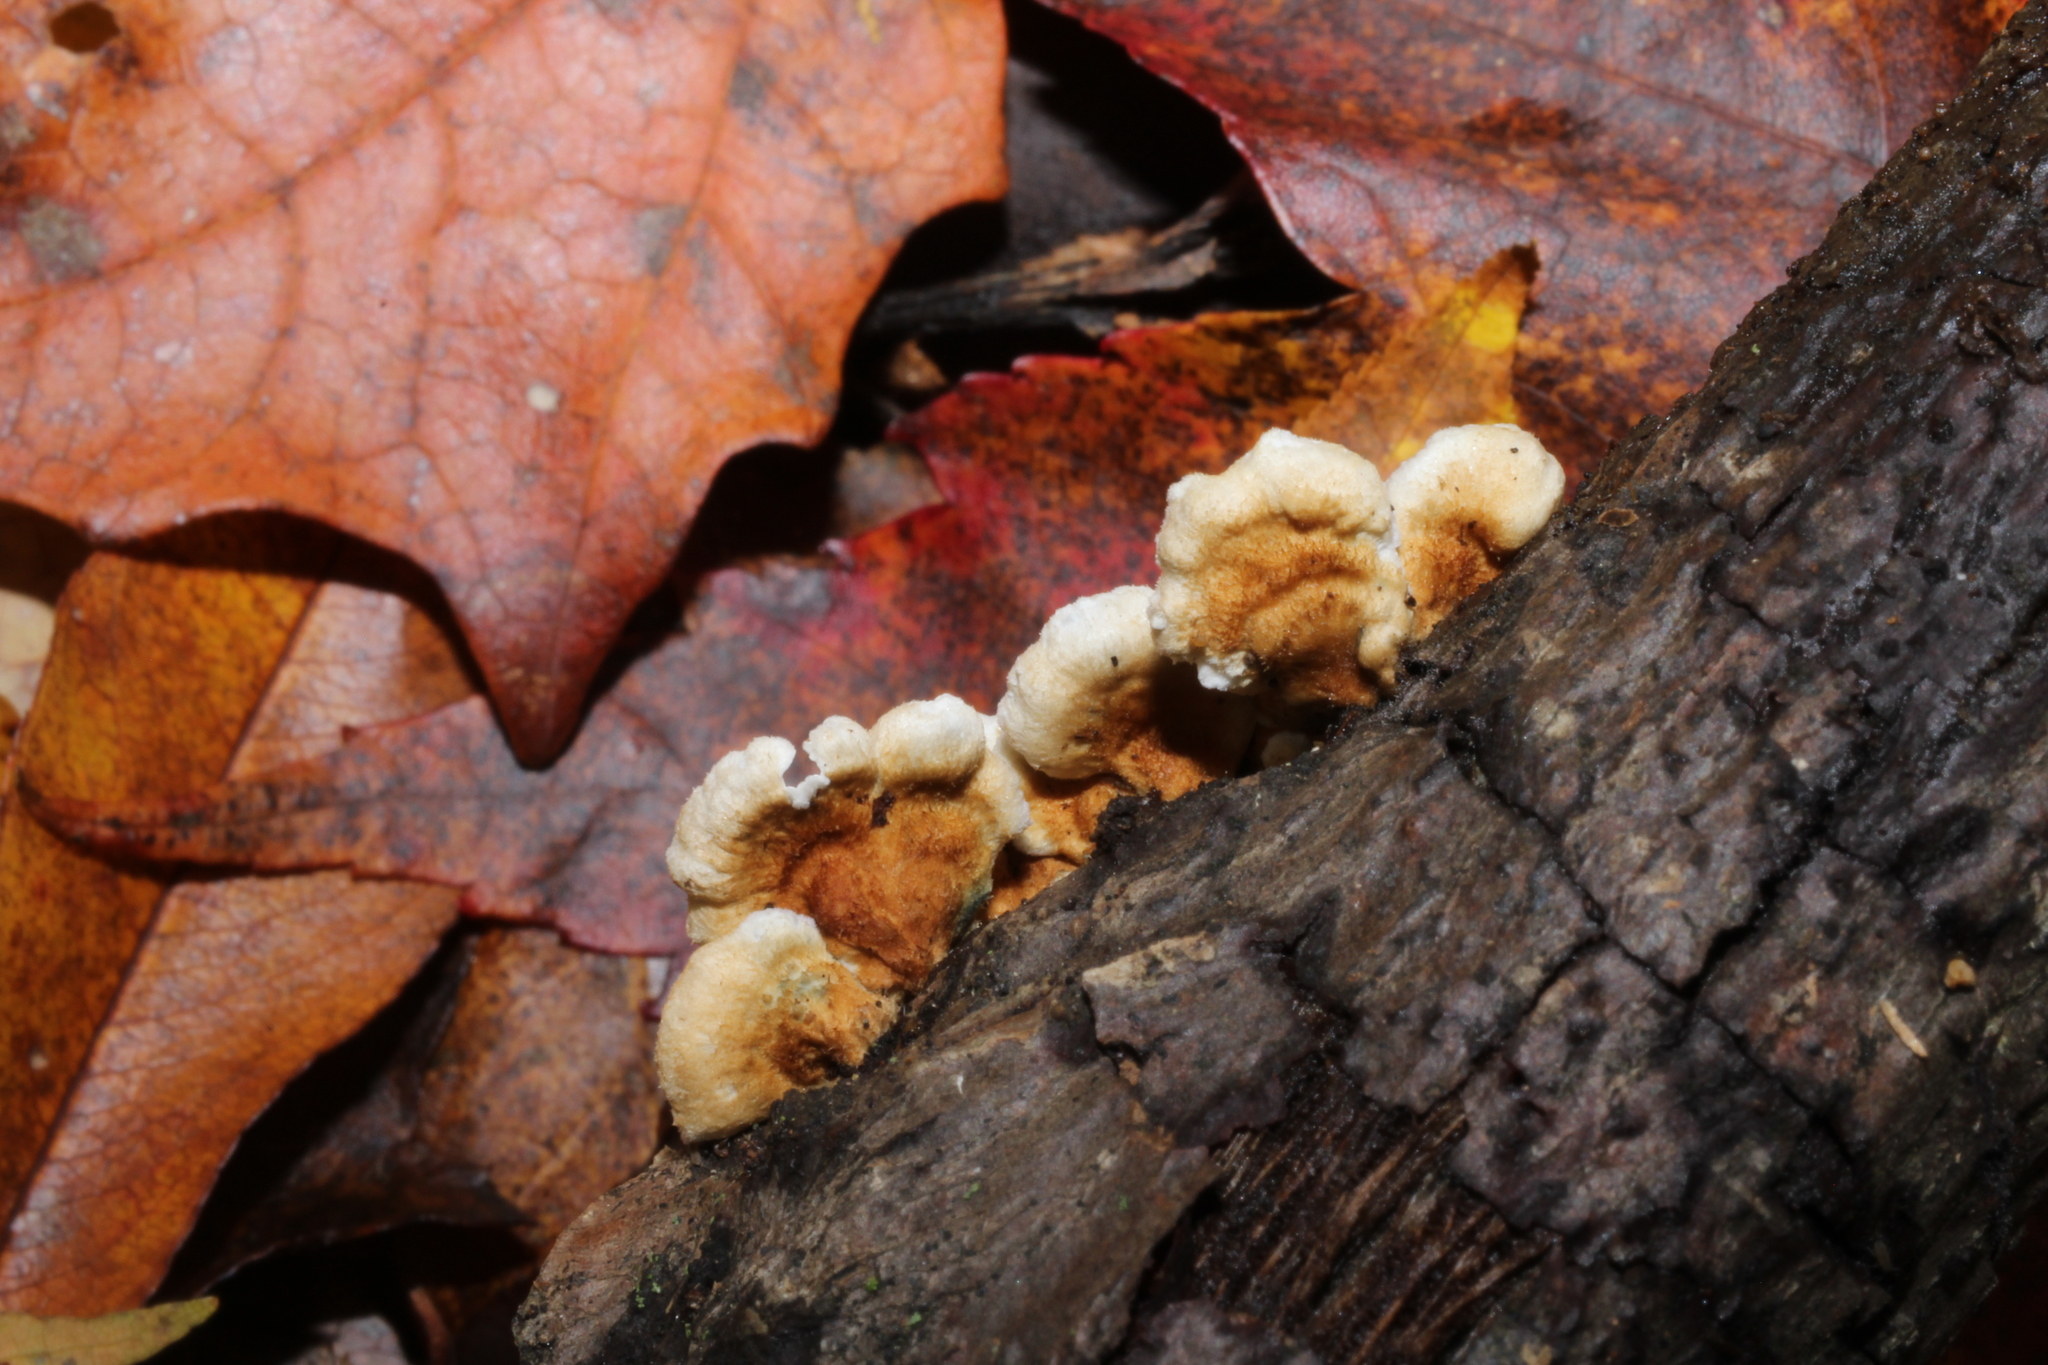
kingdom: Fungi
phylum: Basidiomycota
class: Agaricomycetes
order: Amylocorticiales
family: Amylocorticiaceae
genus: Plicaturopsis
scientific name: Plicaturopsis crispa
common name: Crimped gill
